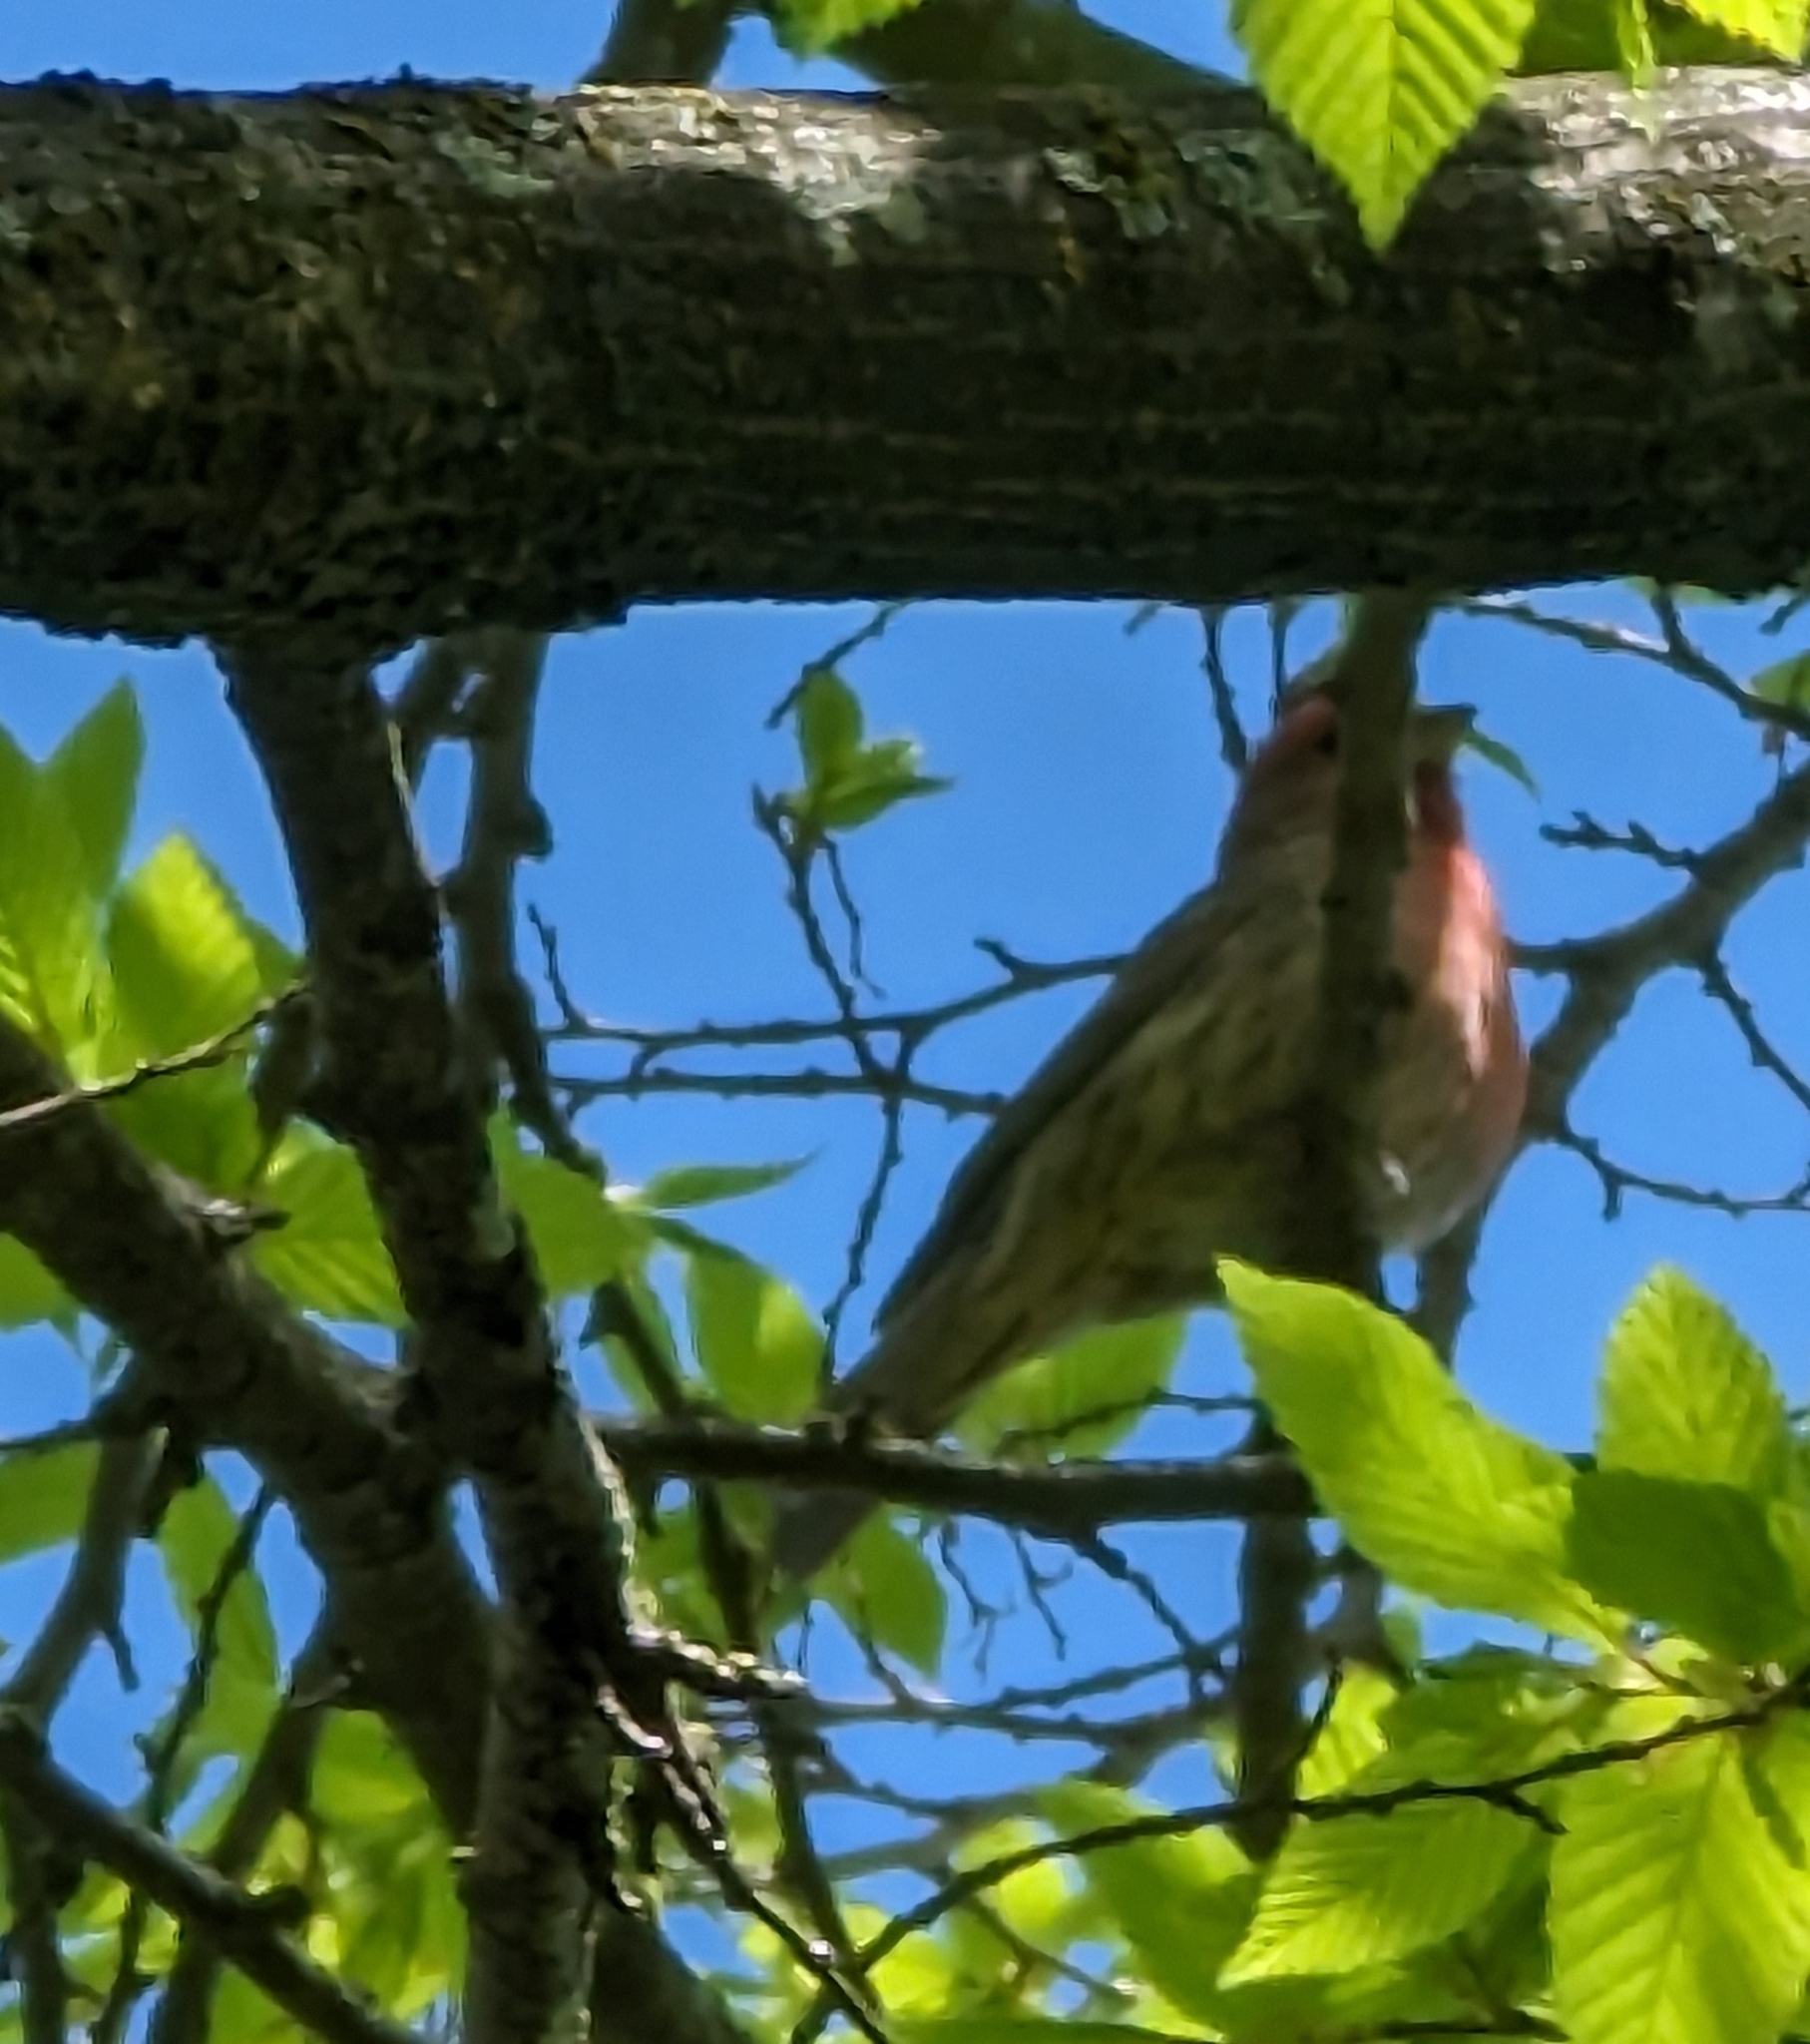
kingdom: Animalia
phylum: Chordata
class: Aves
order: Passeriformes
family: Fringillidae
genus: Haemorhous
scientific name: Haemorhous mexicanus
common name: House finch
